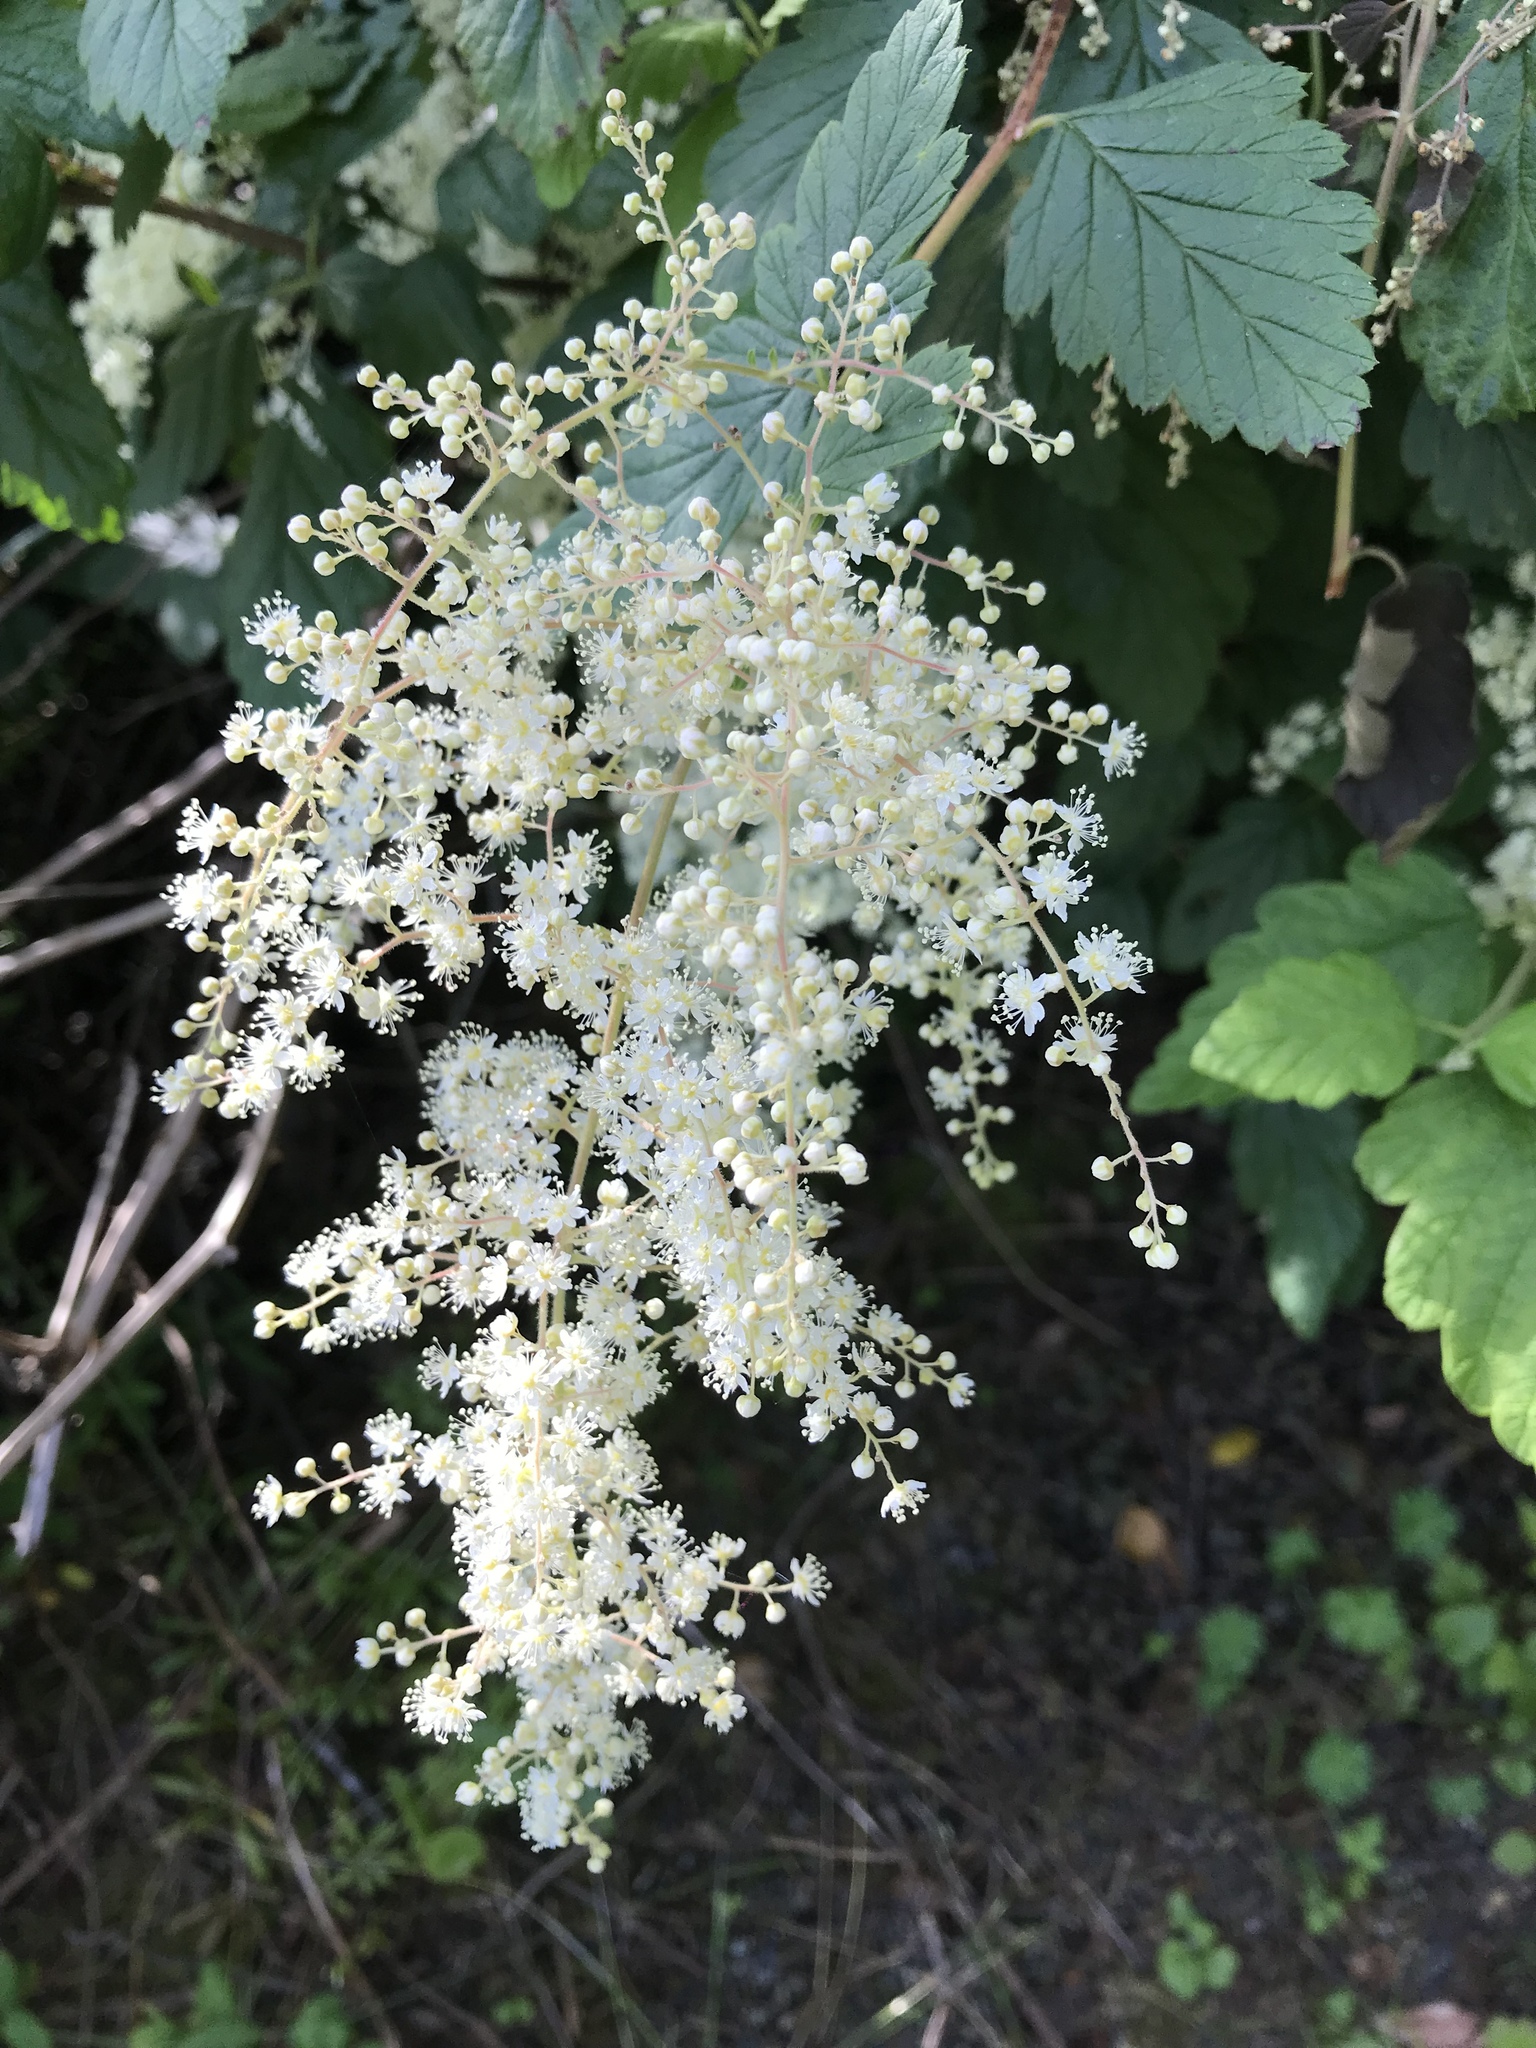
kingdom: Plantae
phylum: Tracheophyta
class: Magnoliopsida
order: Rosales
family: Rosaceae
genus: Holodiscus
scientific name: Holodiscus discolor
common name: Oceanspray
